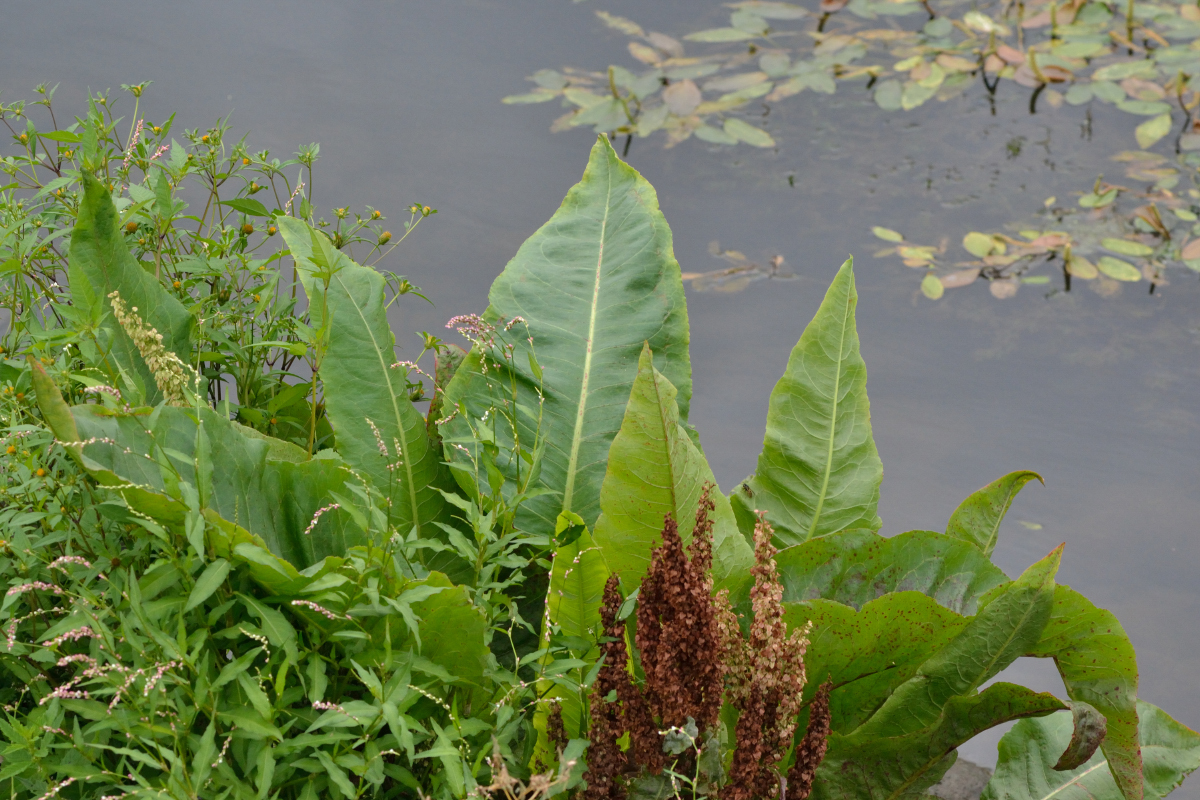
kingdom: Plantae
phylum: Tracheophyta
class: Magnoliopsida
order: Caryophyllales
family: Polygonaceae
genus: Rumex
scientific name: Rumex aquaticus
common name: Scottish dock
